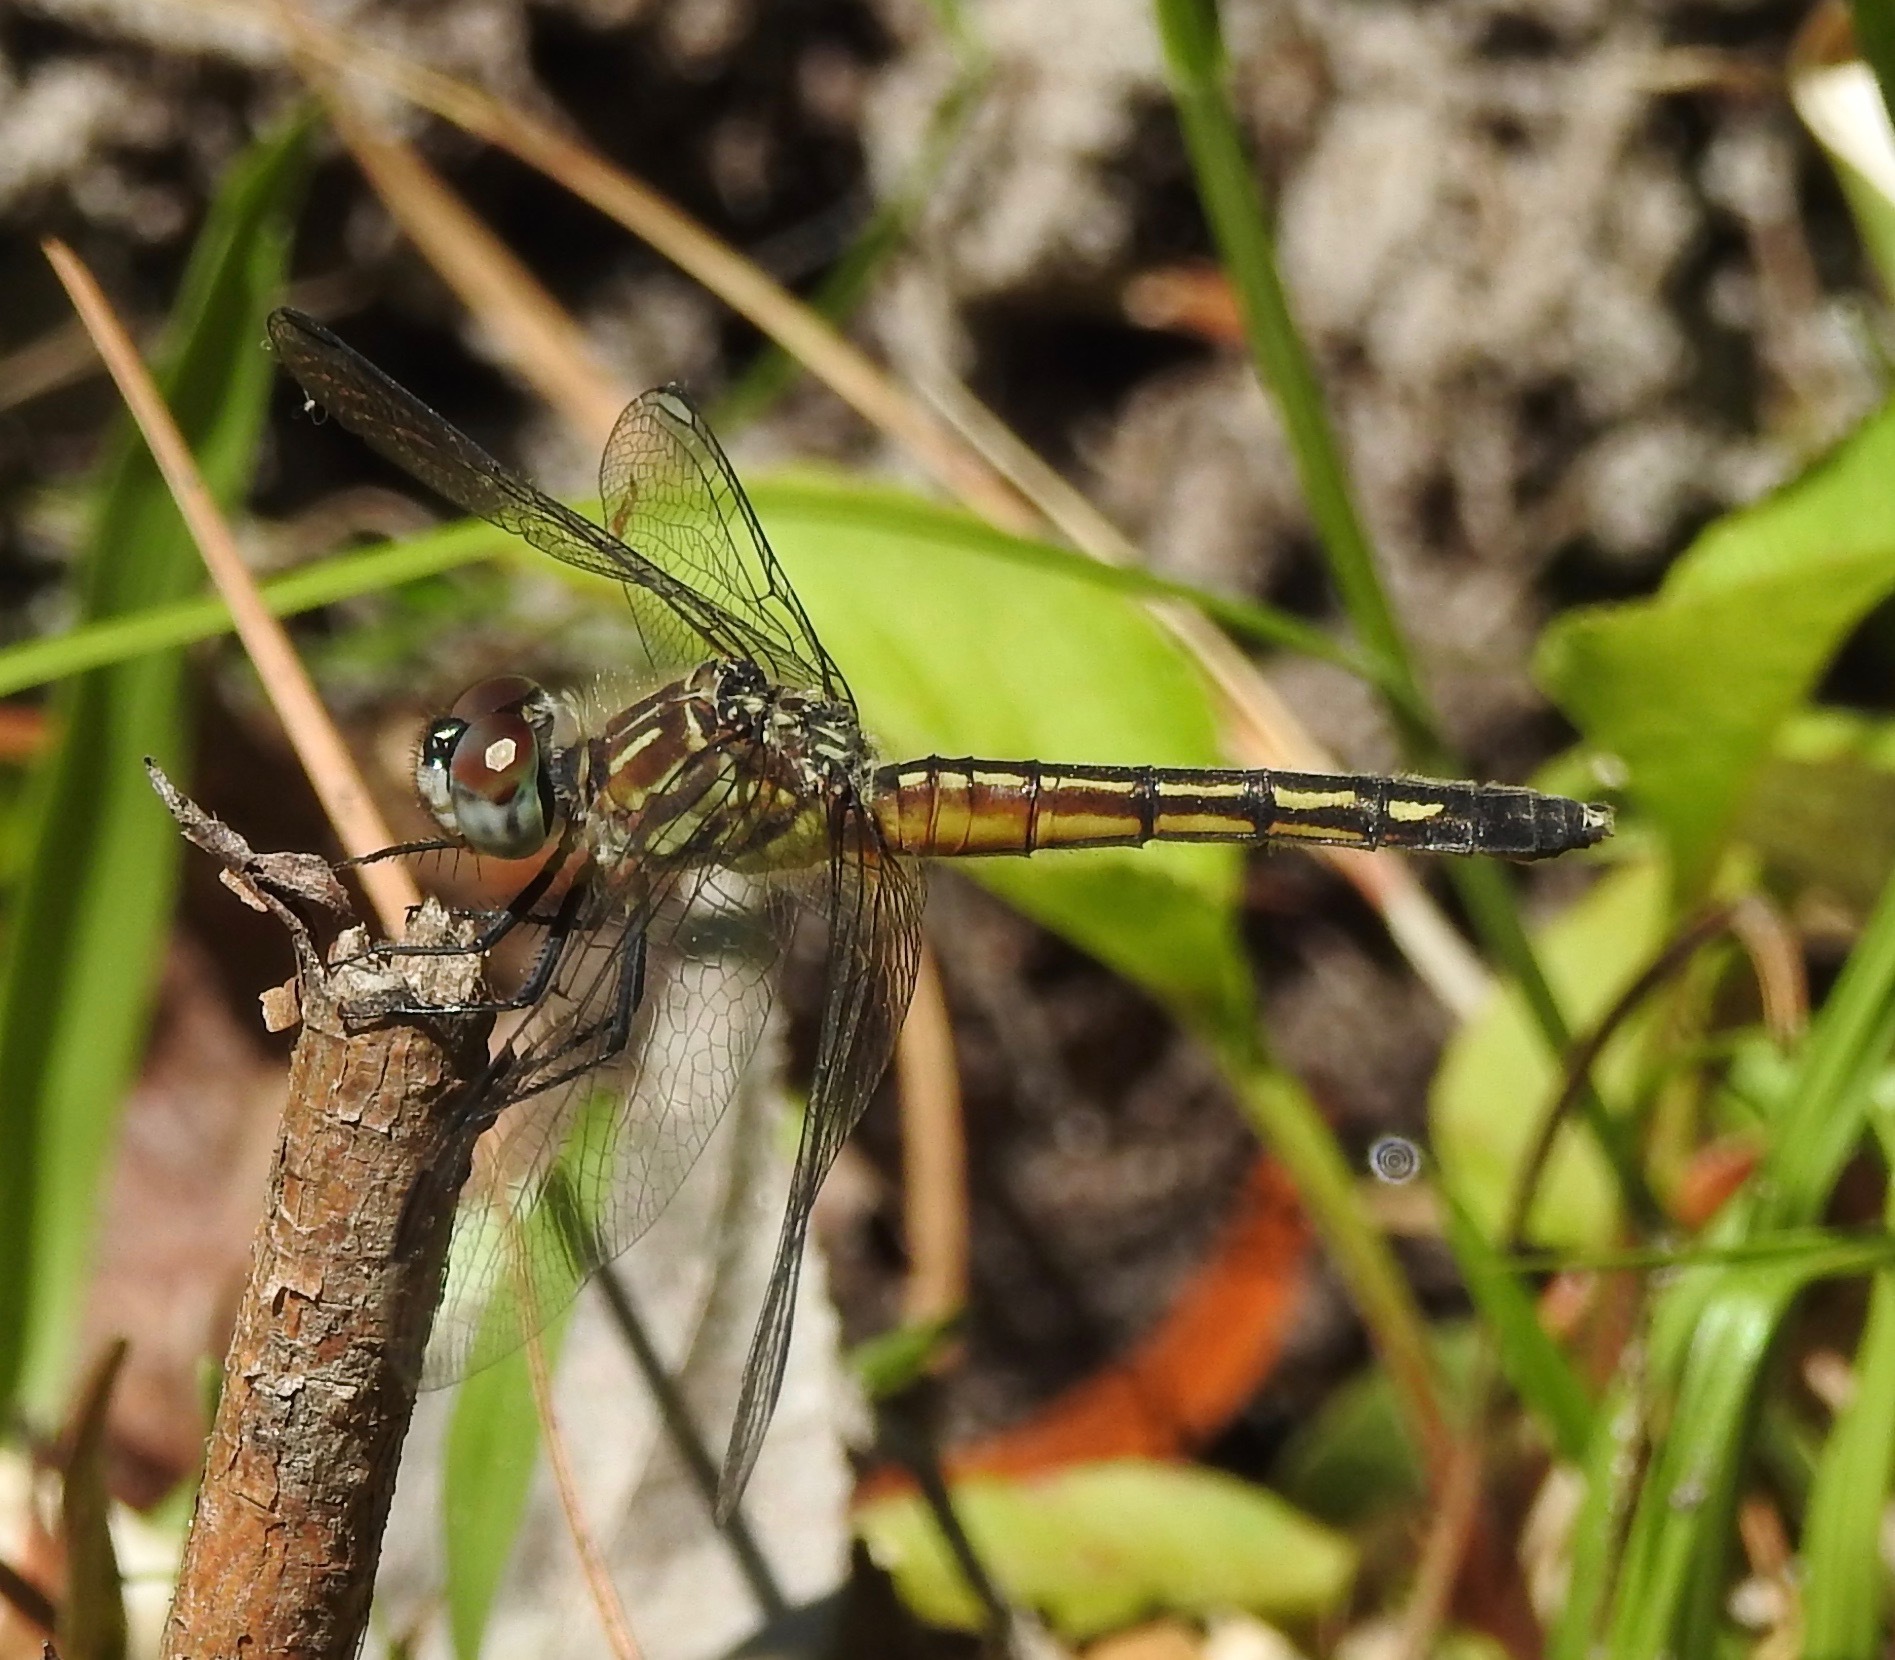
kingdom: Animalia
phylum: Arthropoda
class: Insecta
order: Odonata
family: Libellulidae
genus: Pachydiplax
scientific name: Pachydiplax longipennis
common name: Blue dasher
